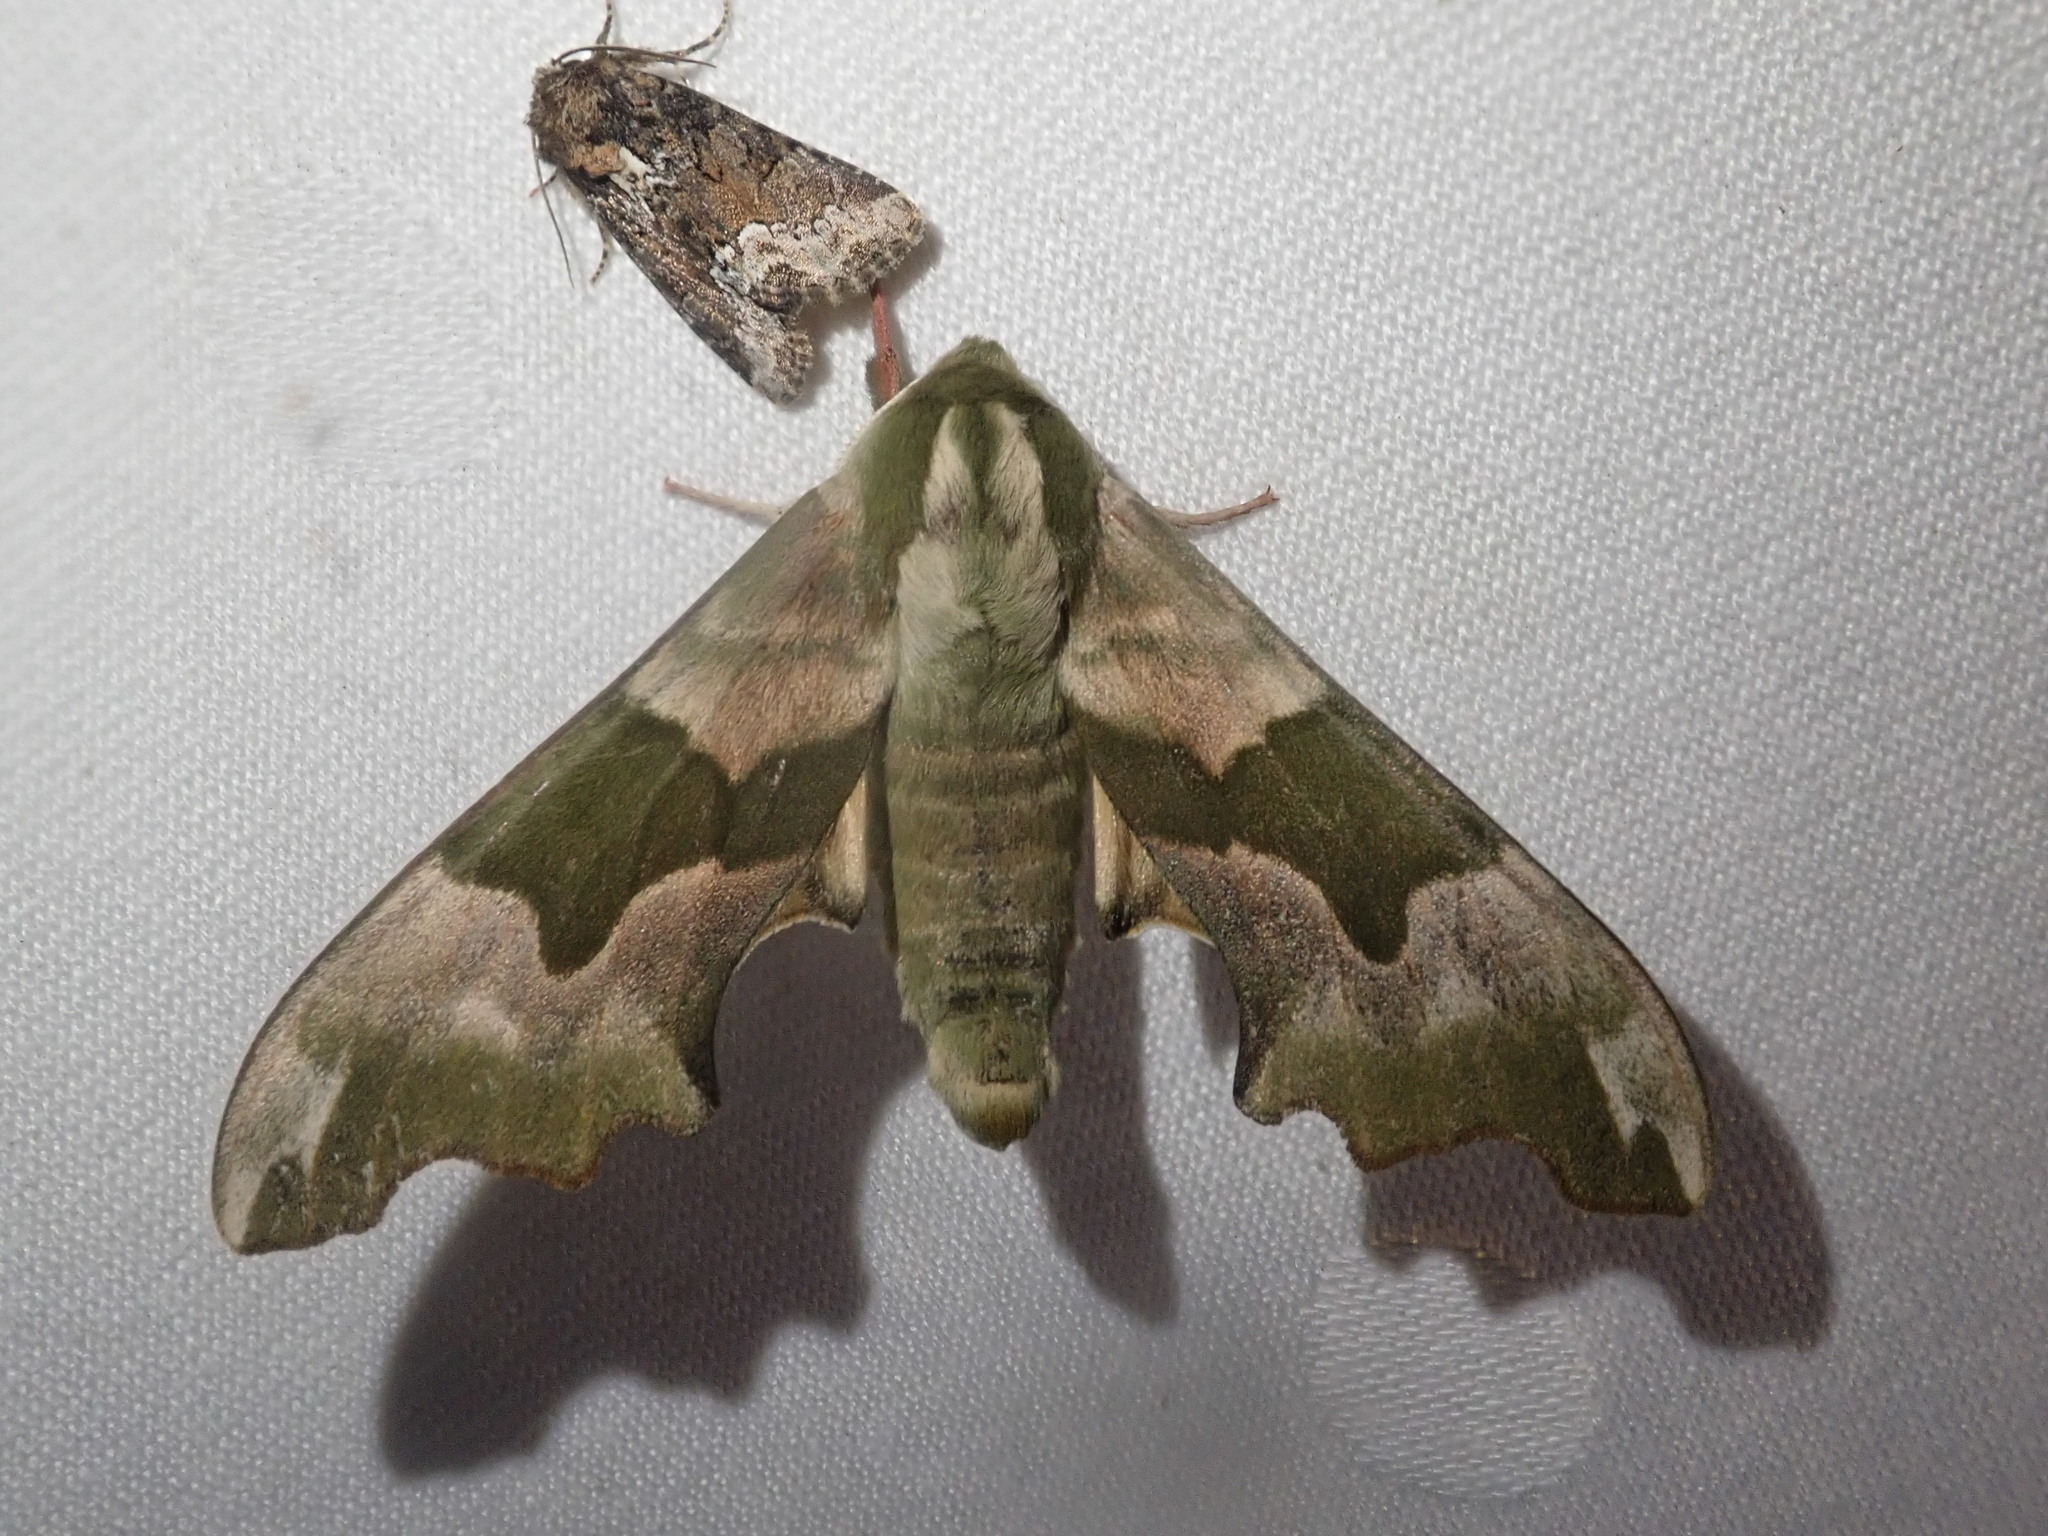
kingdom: Animalia
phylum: Arthropoda
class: Insecta
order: Lepidoptera
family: Sphingidae
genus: Mimas
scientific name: Mimas tiliae
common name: Lime hawk-moth
